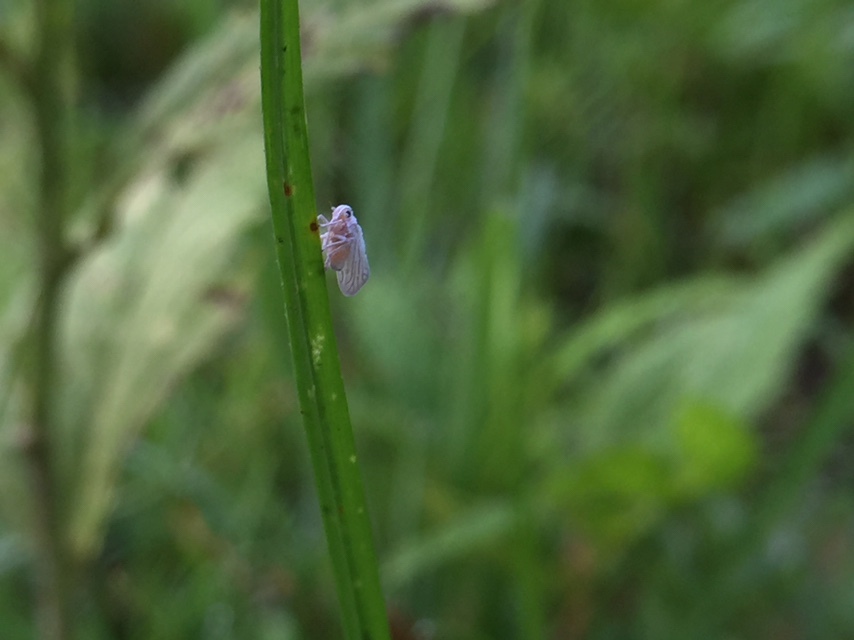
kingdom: Animalia
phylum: Arthropoda
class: Insecta
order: Hemiptera
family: Meenoplidae
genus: Nisia
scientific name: Nisia nervosa
